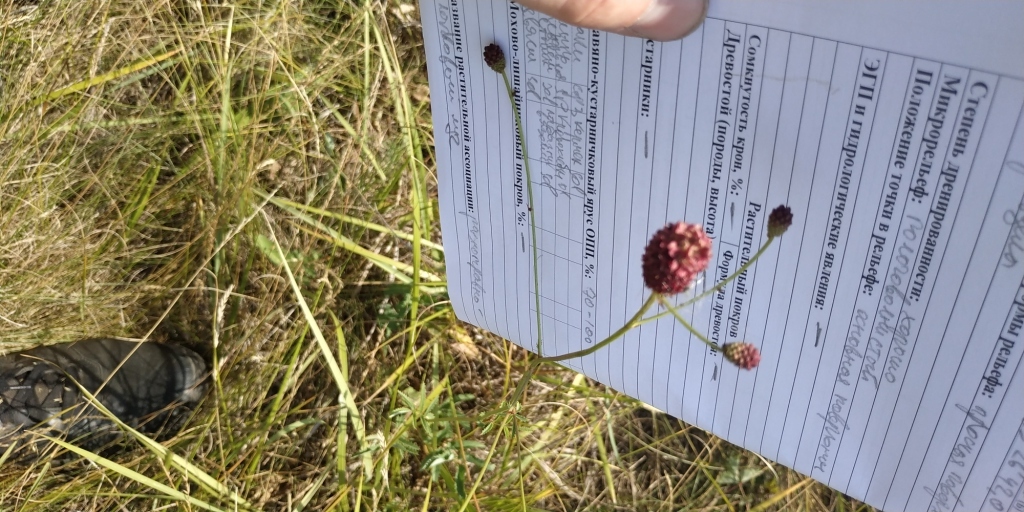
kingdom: Plantae
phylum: Tracheophyta
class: Magnoliopsida
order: Rosales
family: Rosaceae
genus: Sanguisorba
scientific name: Sanguisorba officinalis
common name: Great burnet
